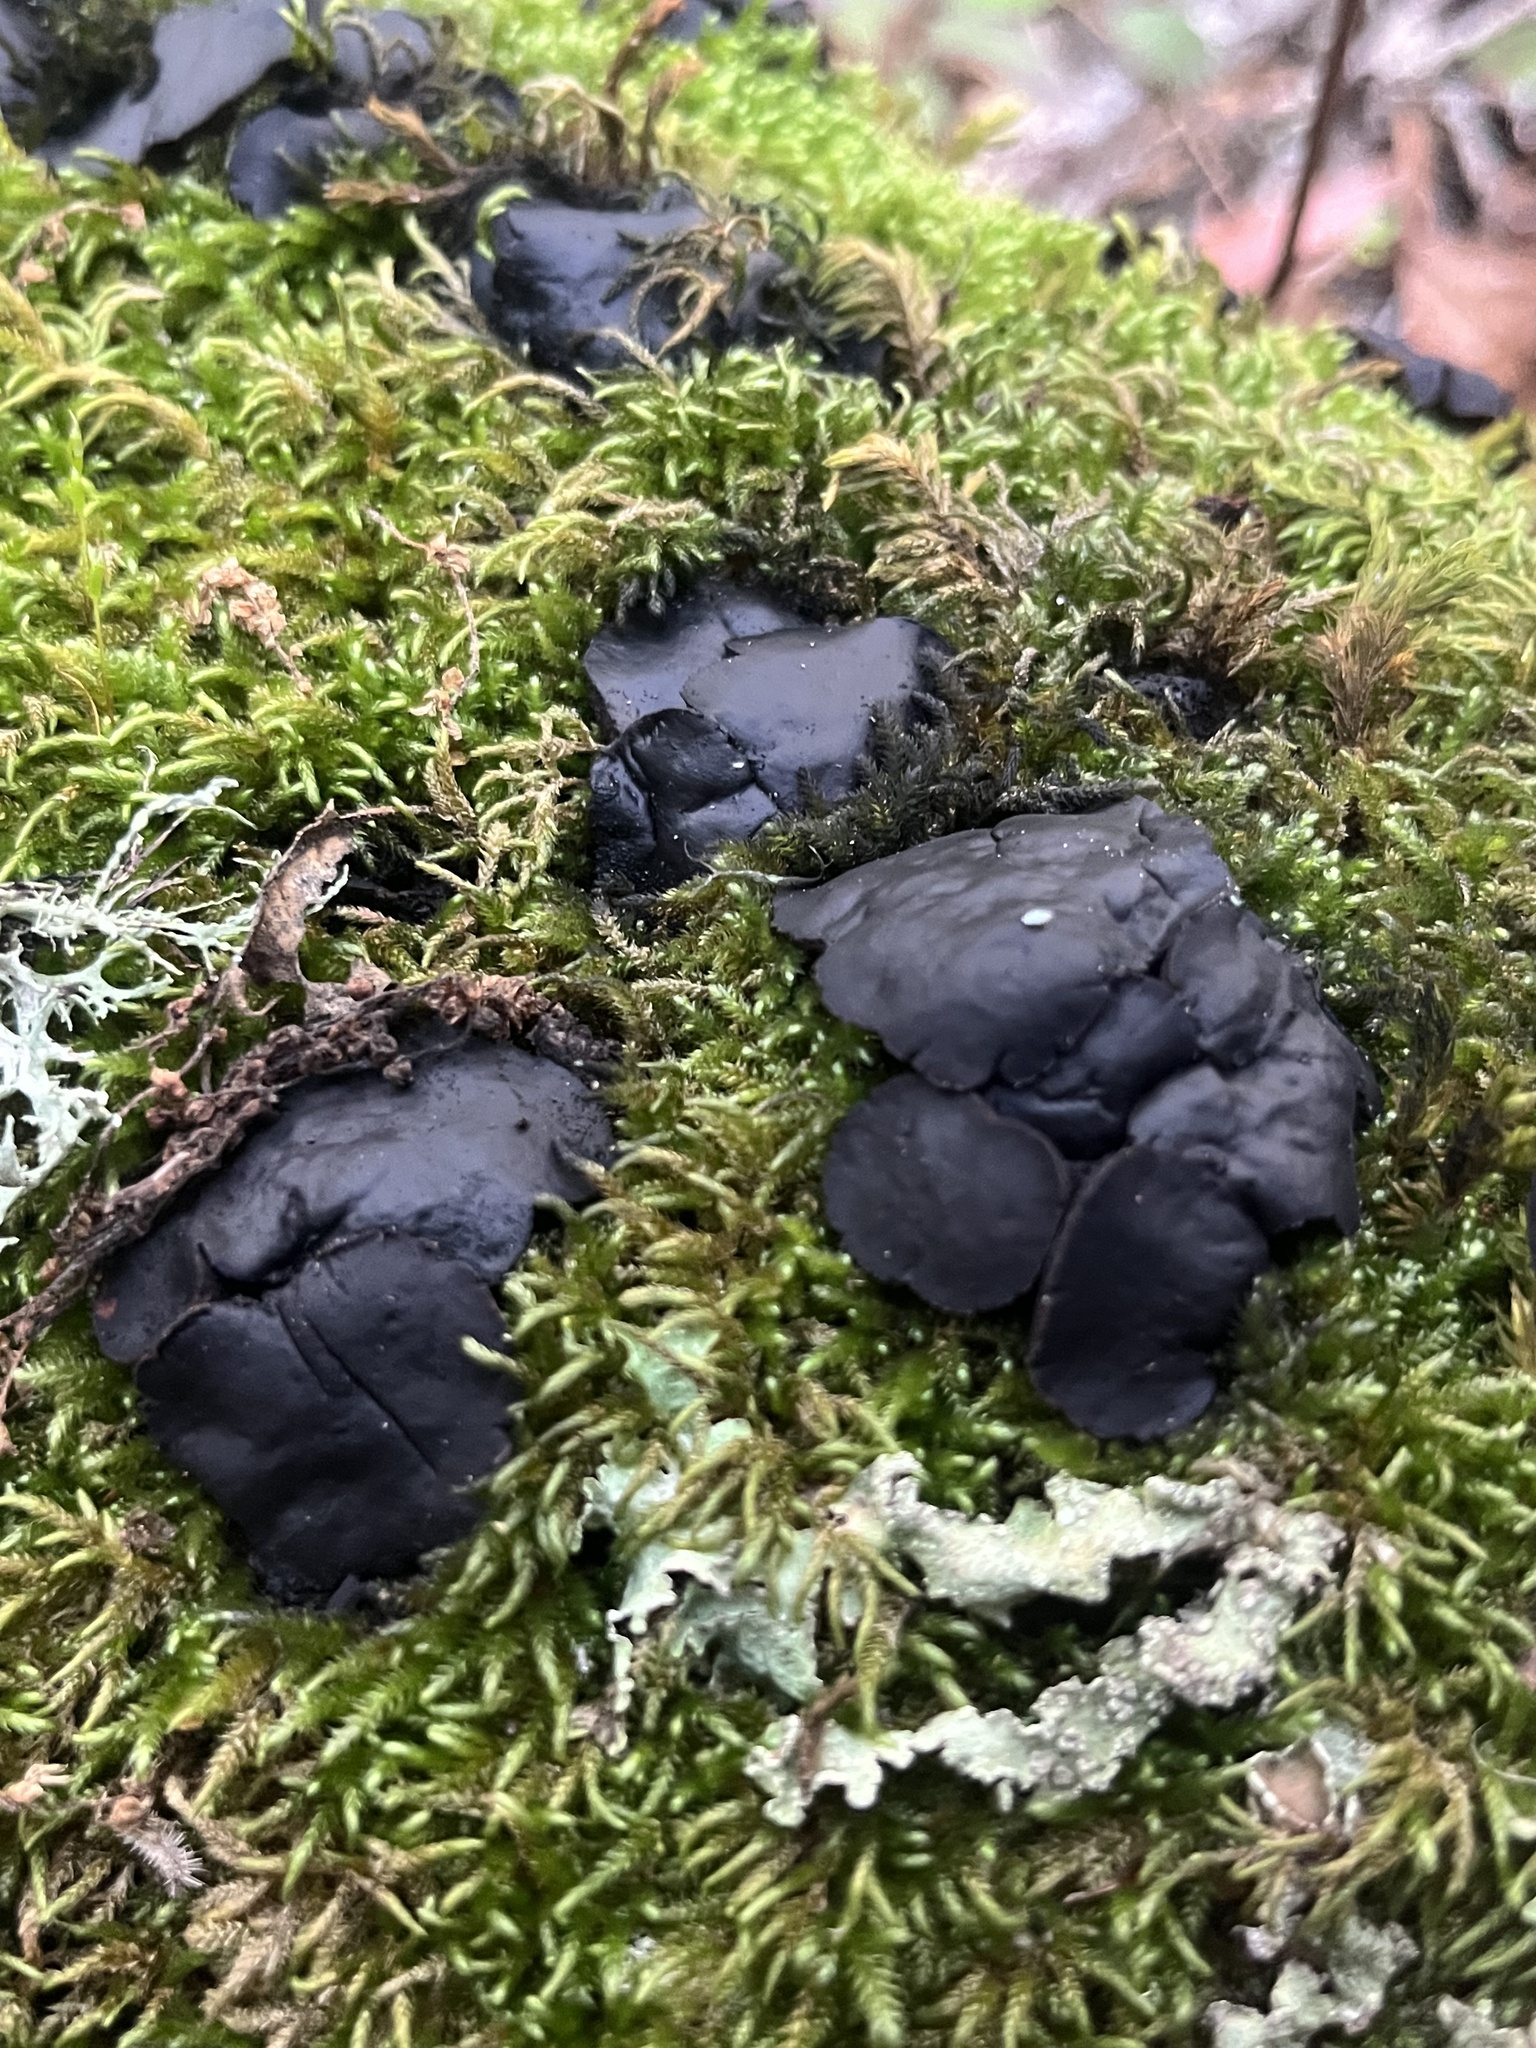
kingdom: Fungi
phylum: Ascomycota
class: Leotiomycetes
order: Phacidiales
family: Phacidiaceae
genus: Bulgaria
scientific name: Bulgaria inquinans
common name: Black bulgar
